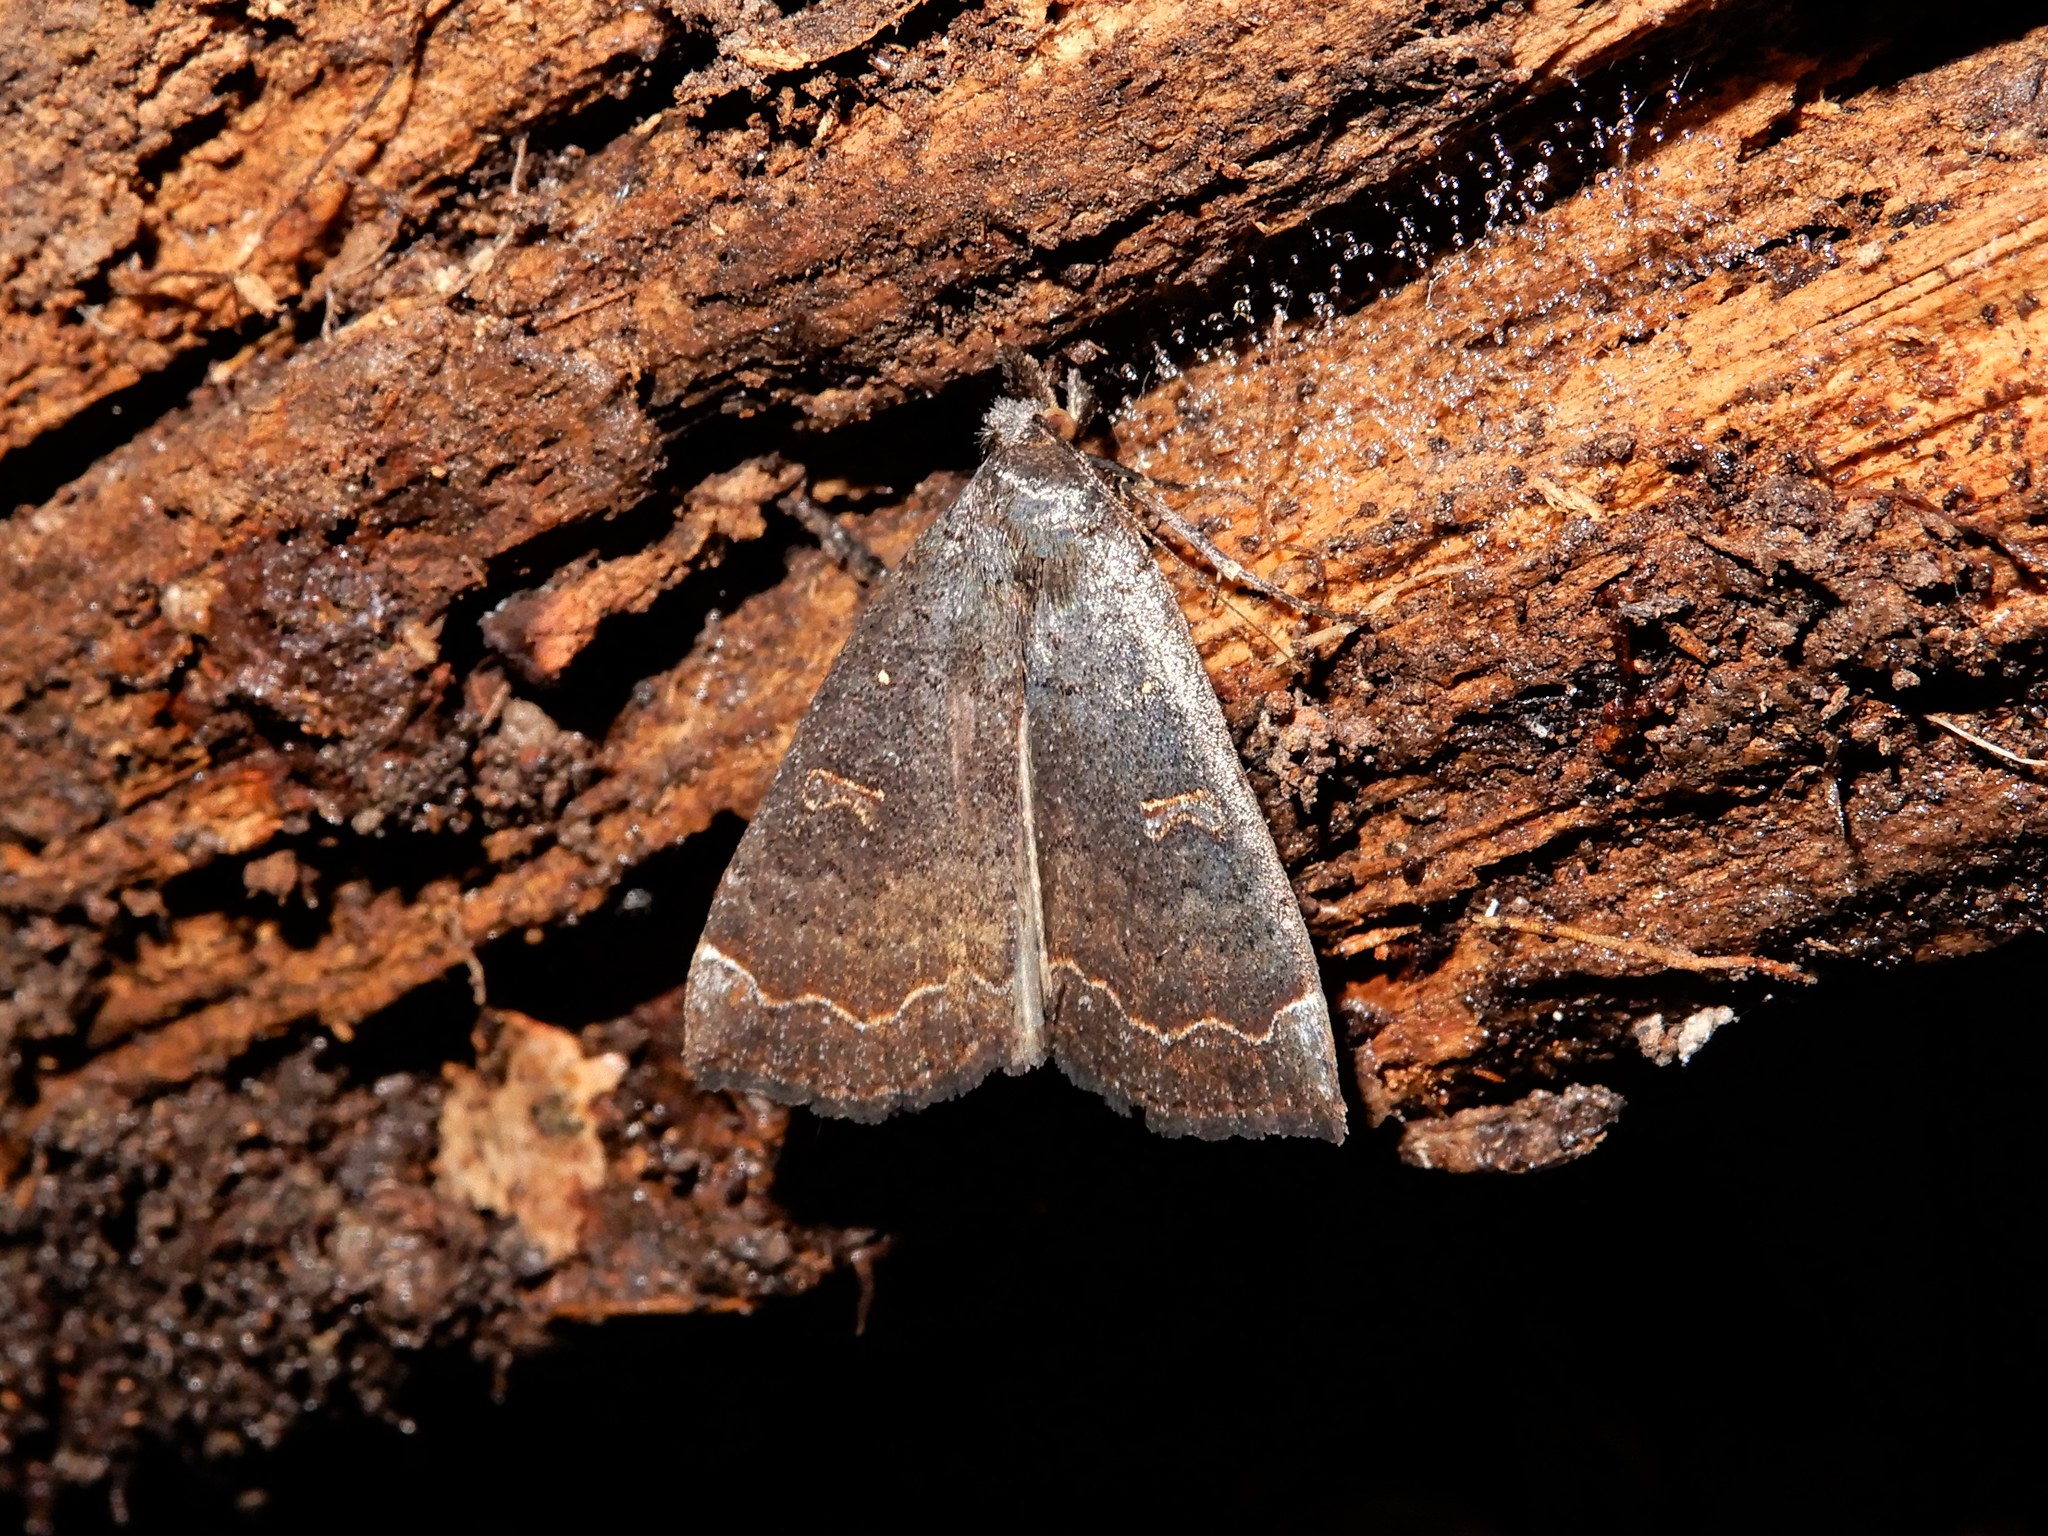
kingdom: Animalia
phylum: Arthropoda
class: Insecta
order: Lepidoptera
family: Erebidae
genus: Rhapsa
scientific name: Rhapsa scotosialis
